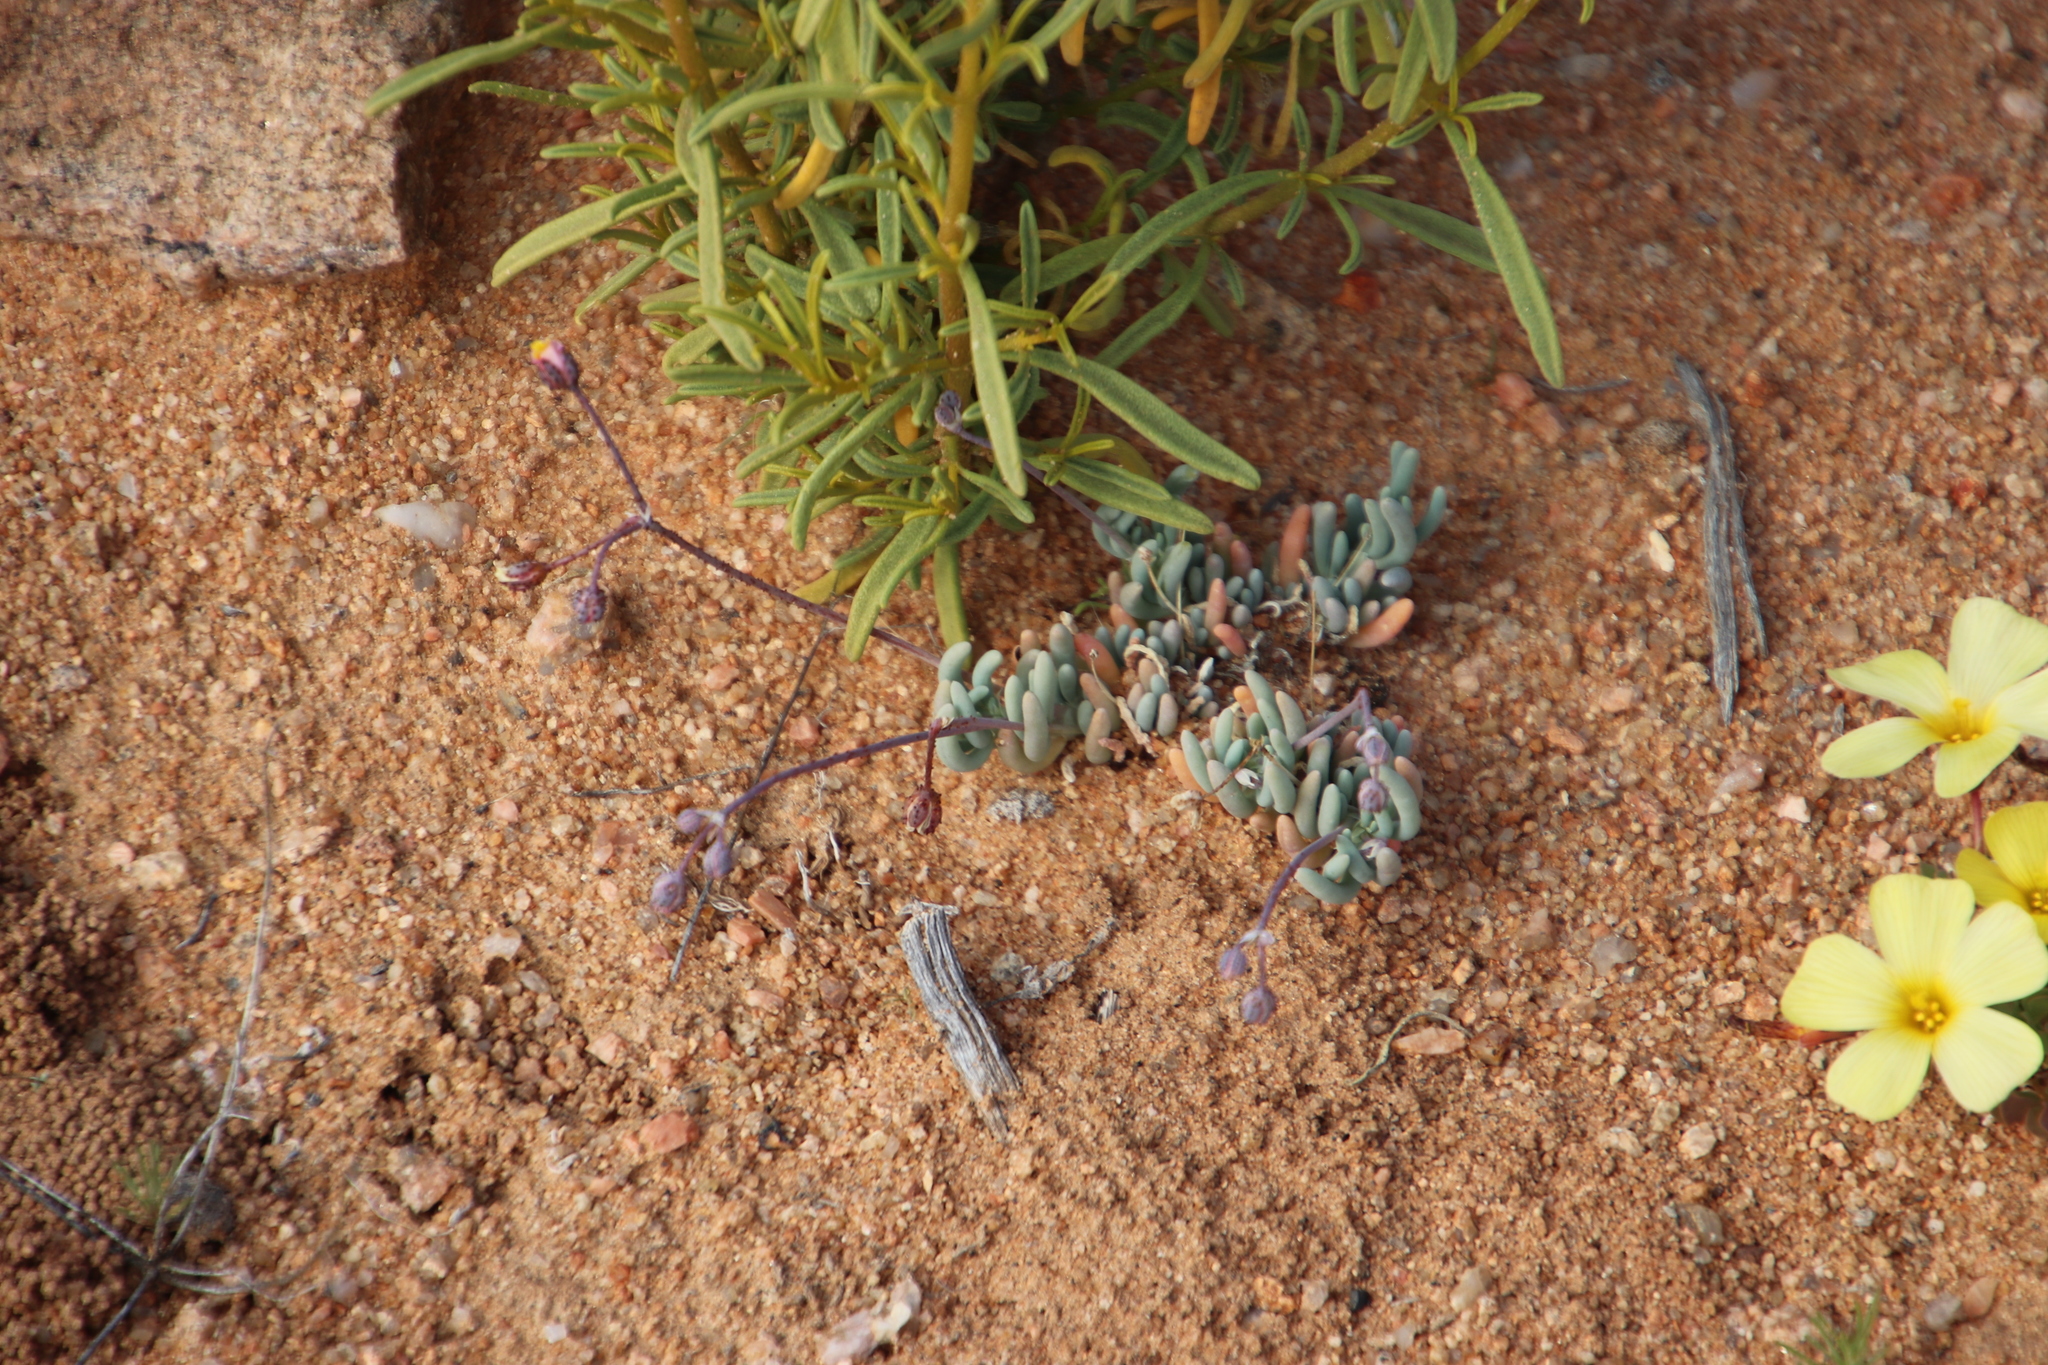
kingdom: Plantae
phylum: Tracheophyta
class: Magnoliopsida
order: Caryophyllales
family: Kewaceae
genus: Kewa
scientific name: Kewa salsoloides
